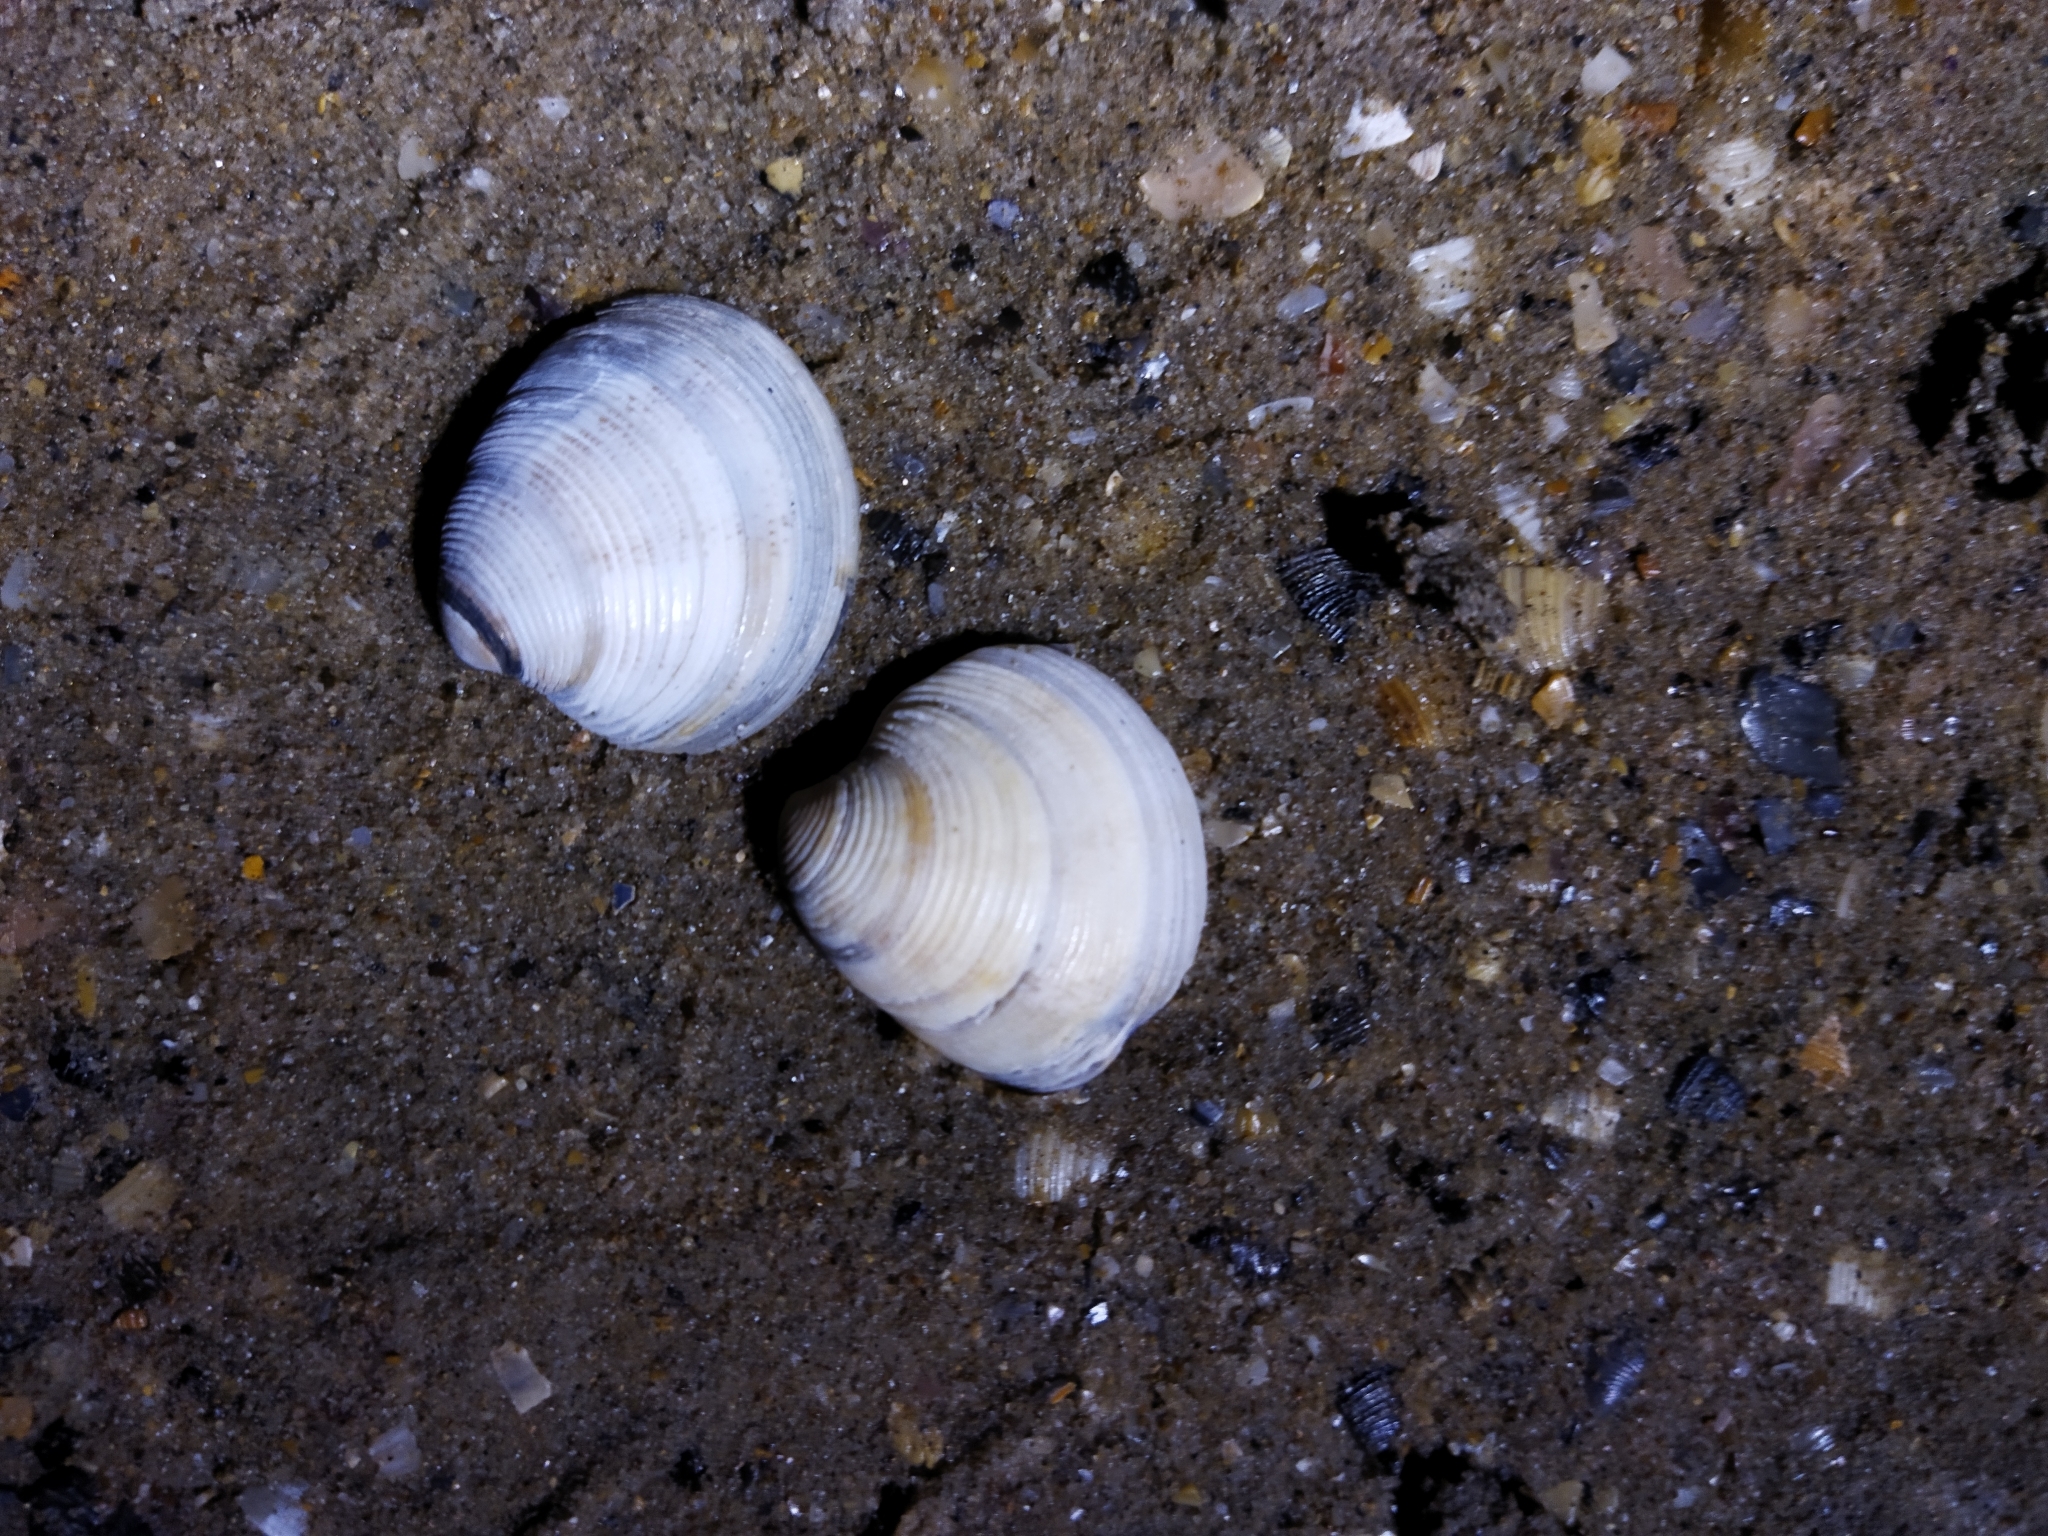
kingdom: Animalia
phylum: Mollusca
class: Bivalvia
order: Venerida
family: Veneridae
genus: Chamelea
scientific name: Chamelea gallina
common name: Chicken venus
